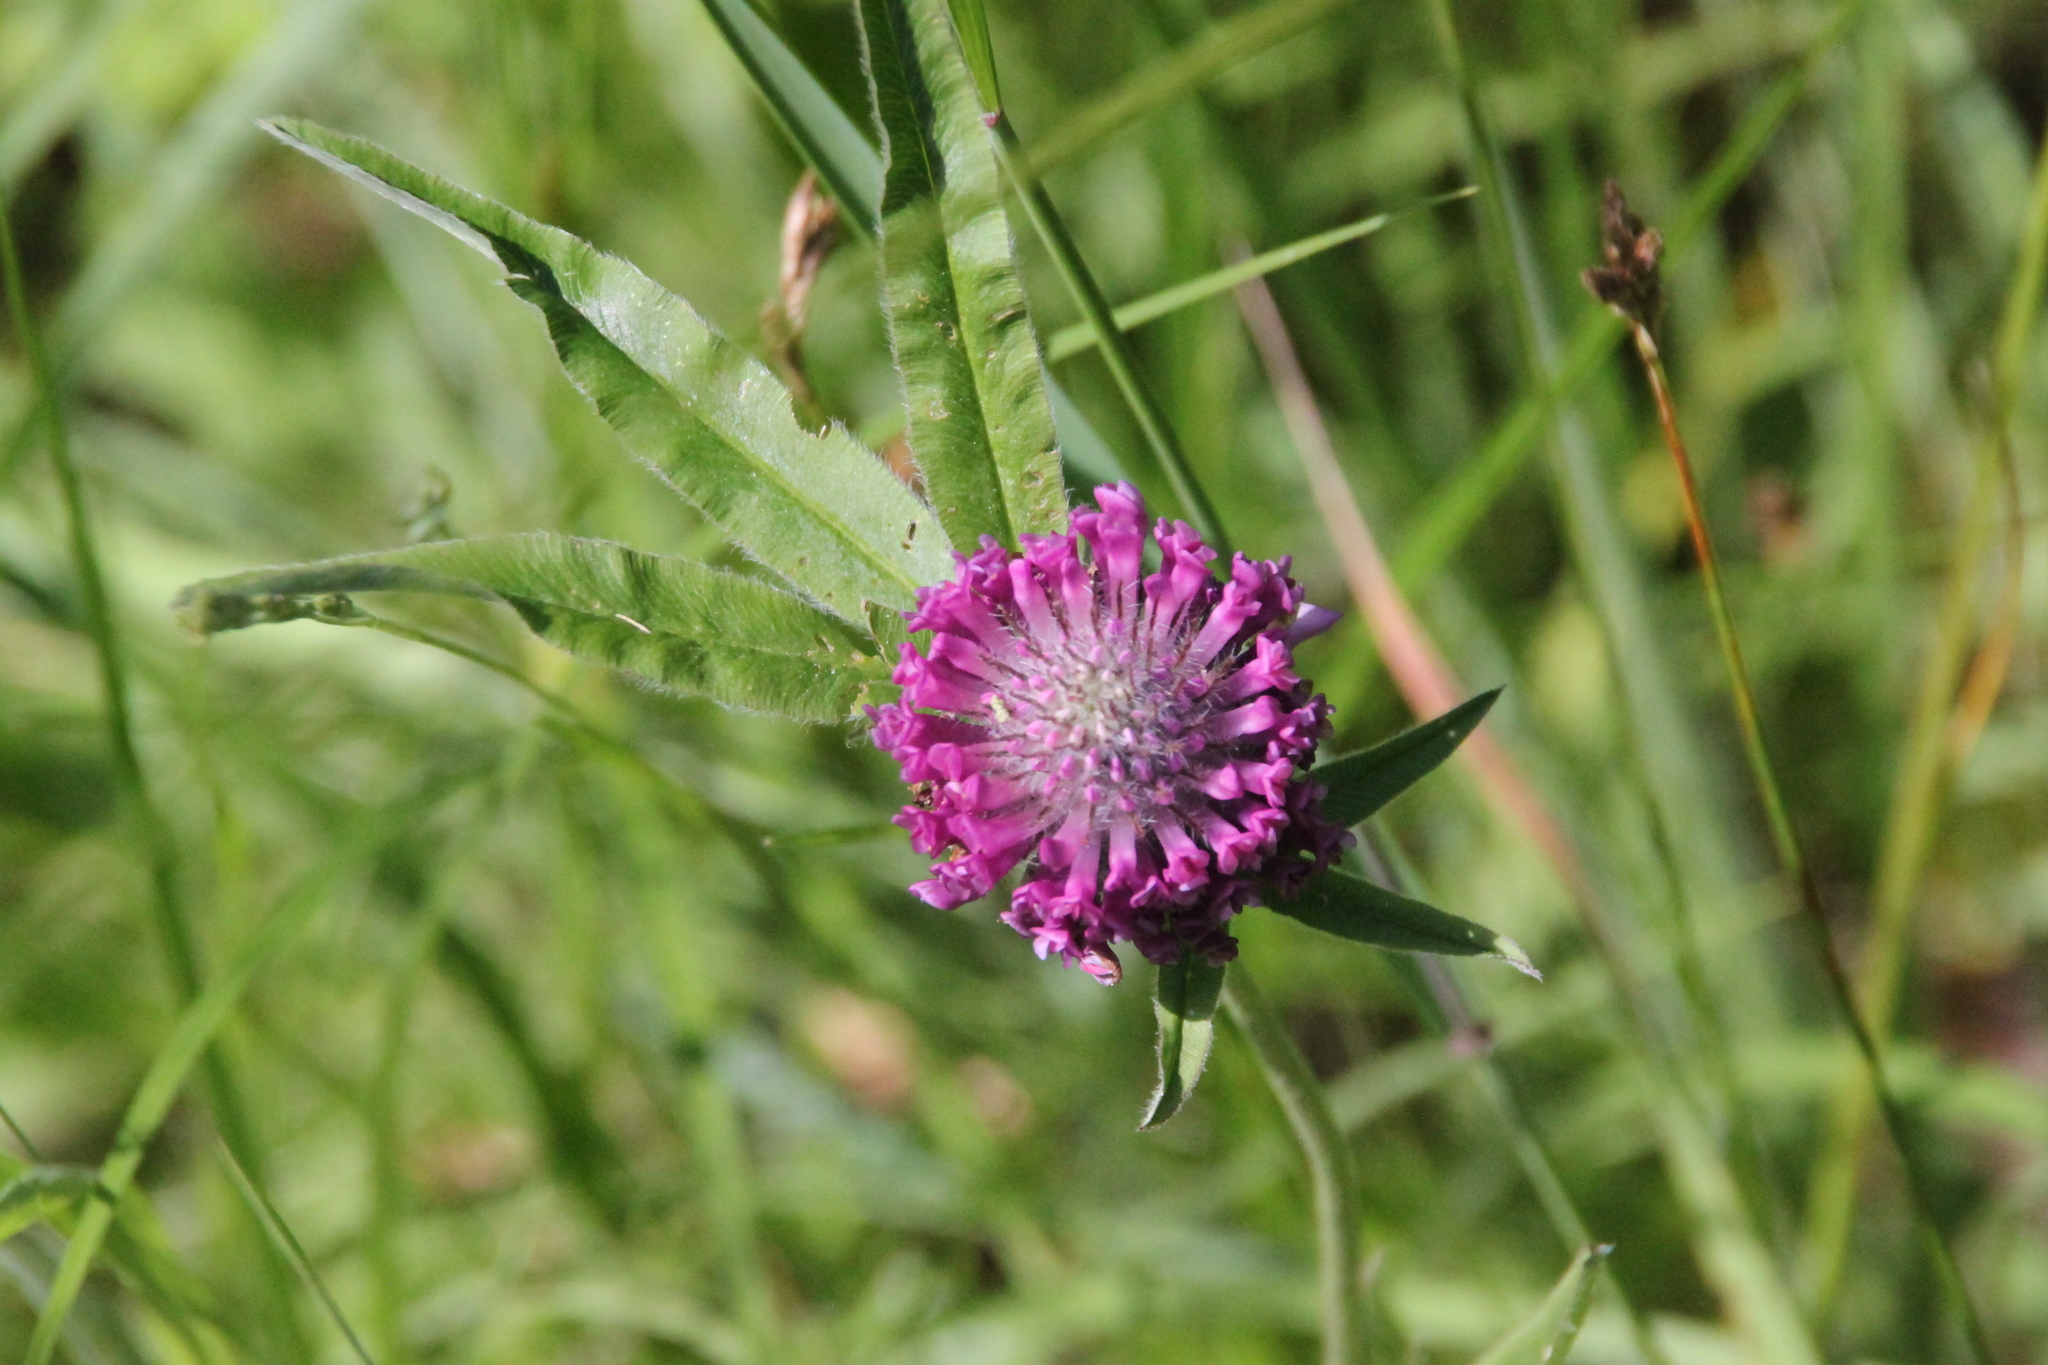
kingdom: Plantae
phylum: Tracheophyta
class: Magnoliopsida
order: Fabales
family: Fabaceae
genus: Trifolium
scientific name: Trifolium alpestre
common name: Owl-head clover
